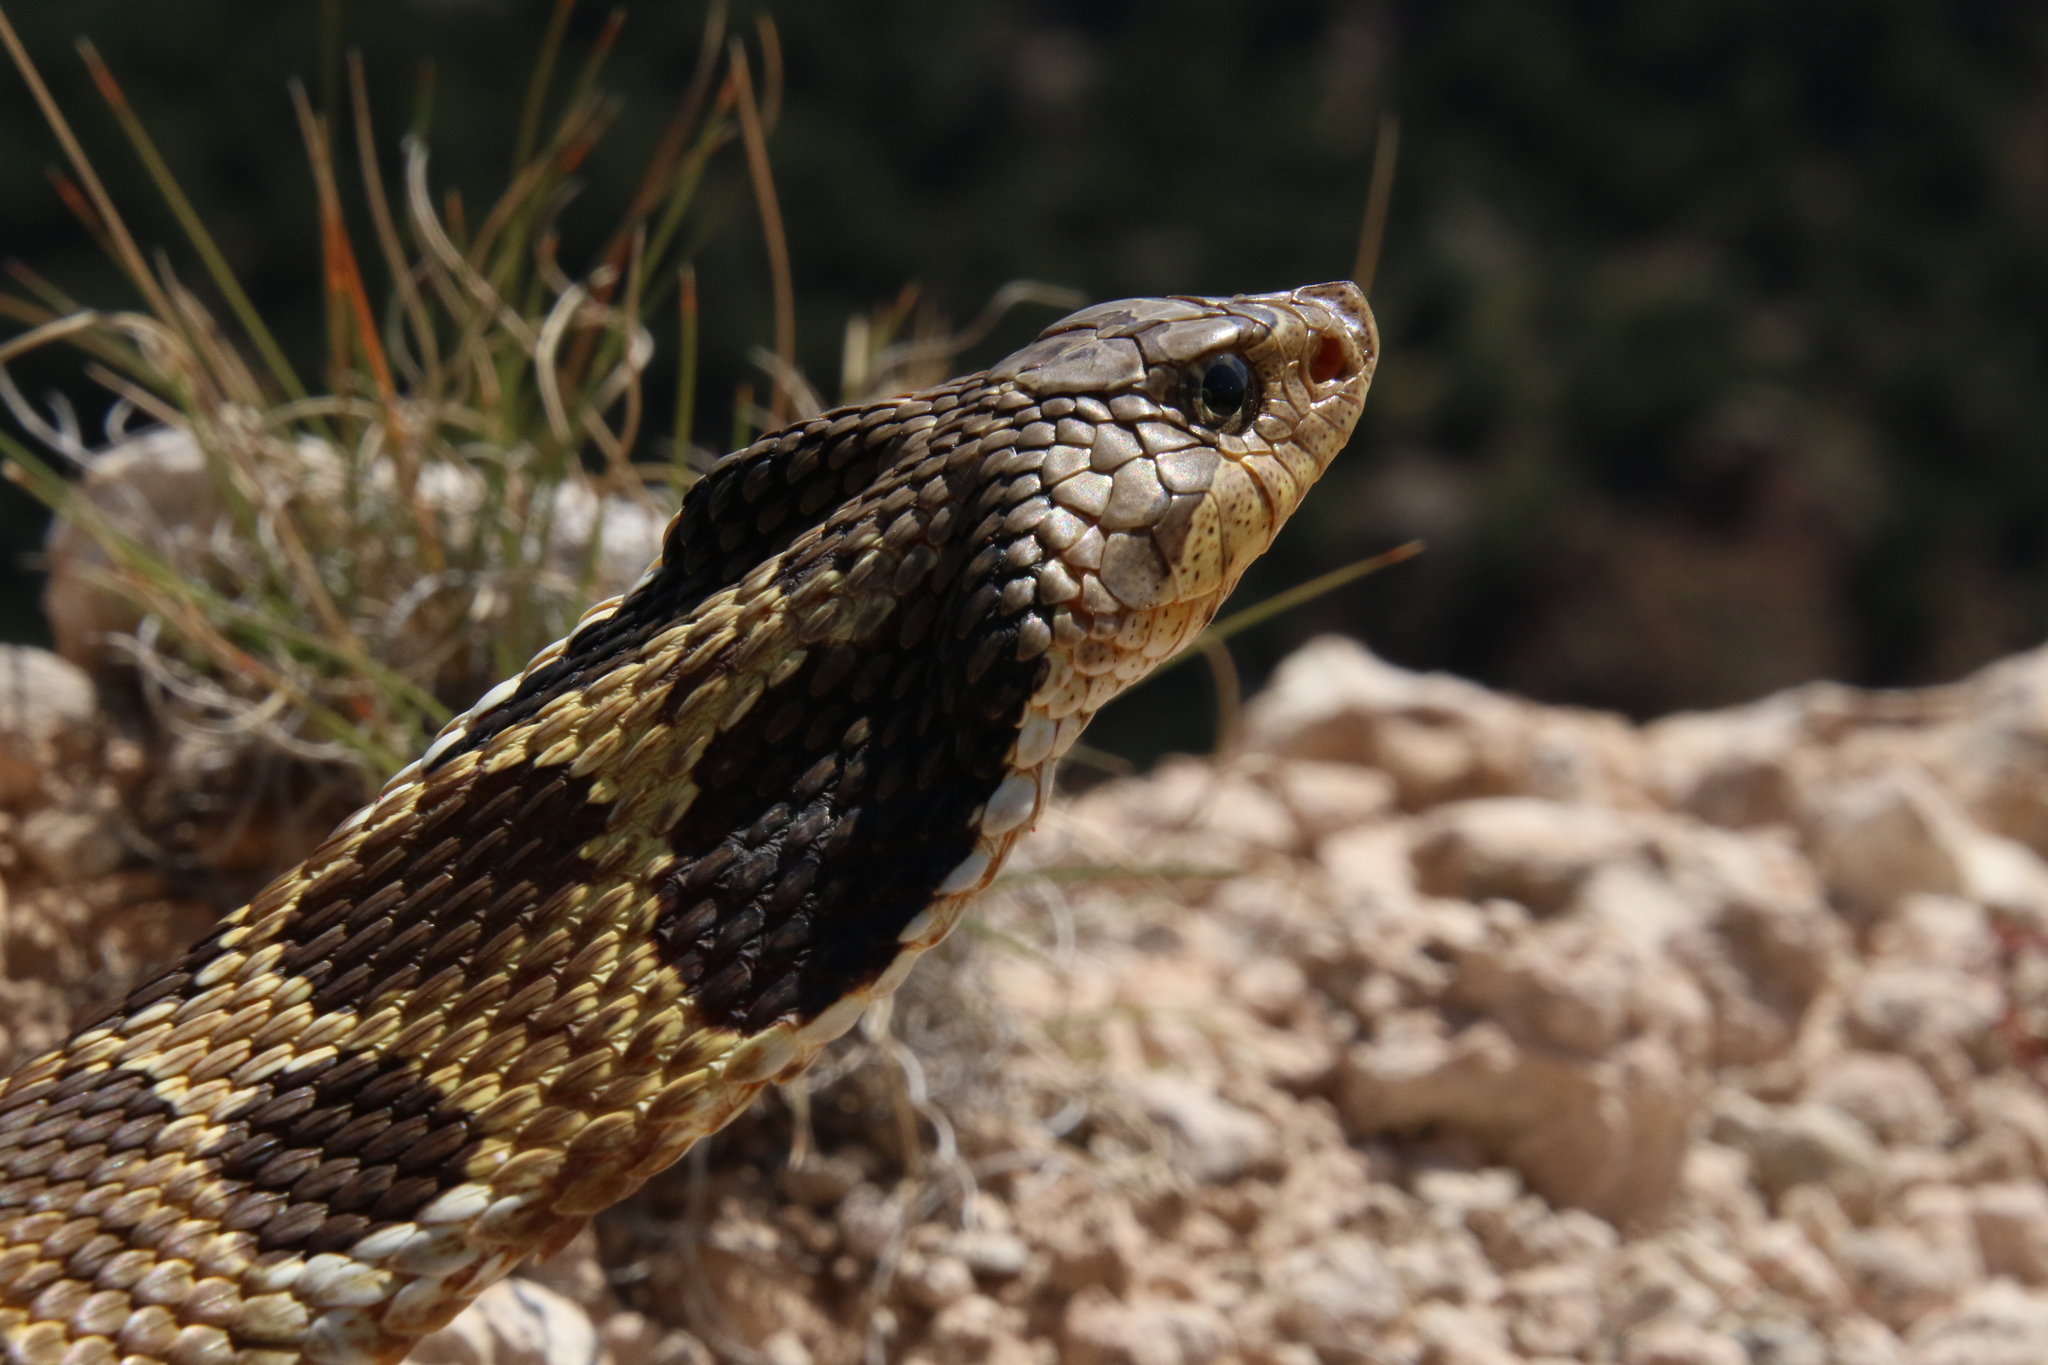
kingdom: Animalia
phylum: Chordata
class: Squamata
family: Colubridae
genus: Heterodon
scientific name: Heterodon platirhinos
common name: Eastern hognose snake
